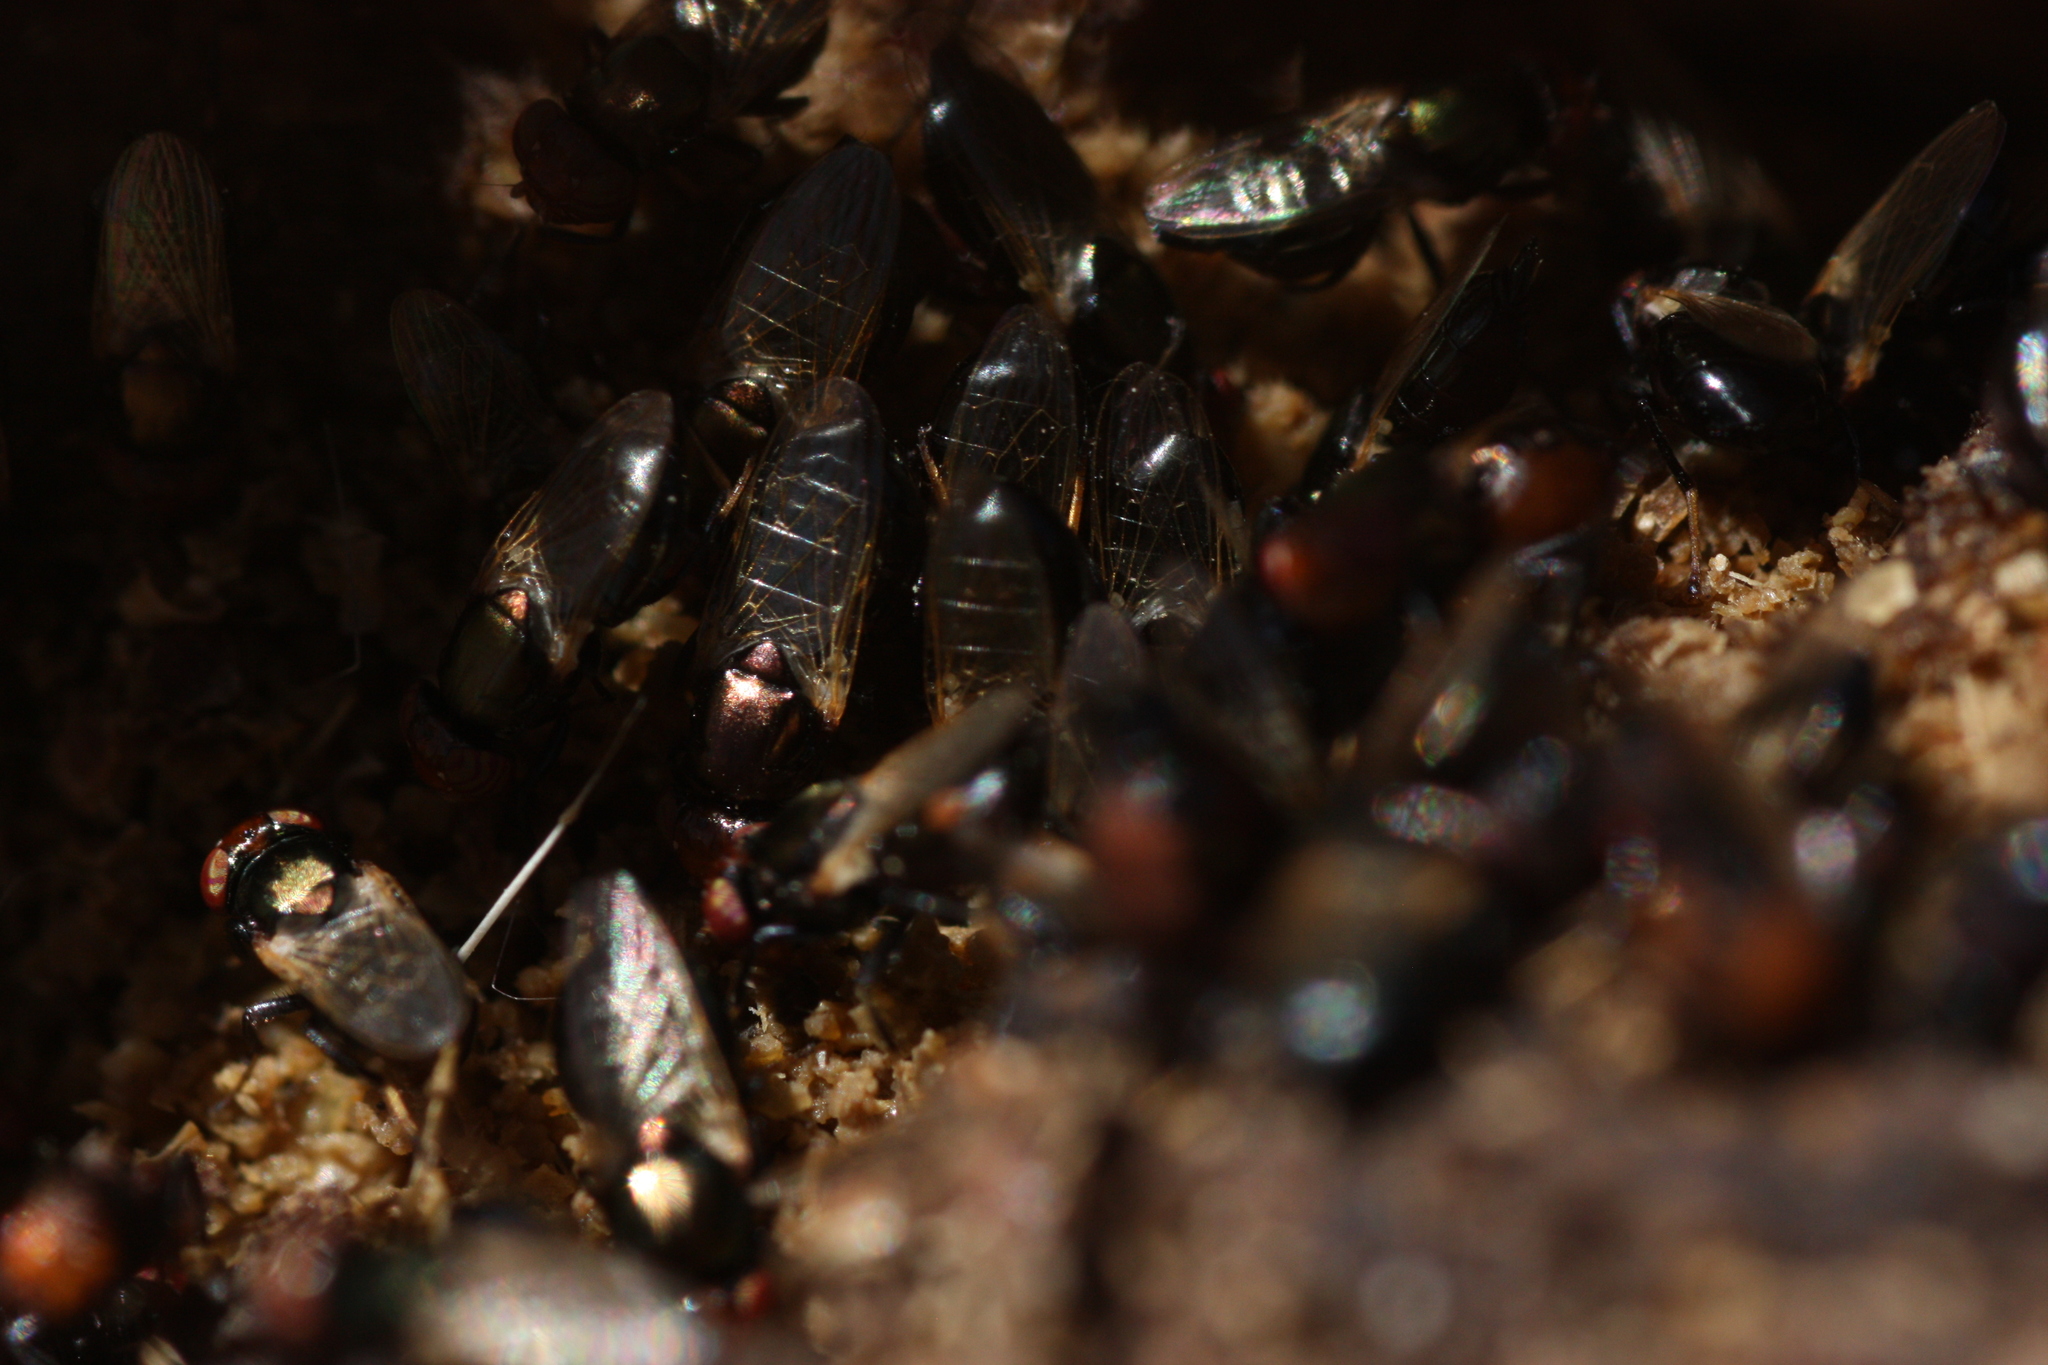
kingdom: Animalia
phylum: Arthropoda
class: Insecta
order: Diptera
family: Ulidiidae
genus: Physiphora
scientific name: Physiphora alceae
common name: Picture-winged fly
